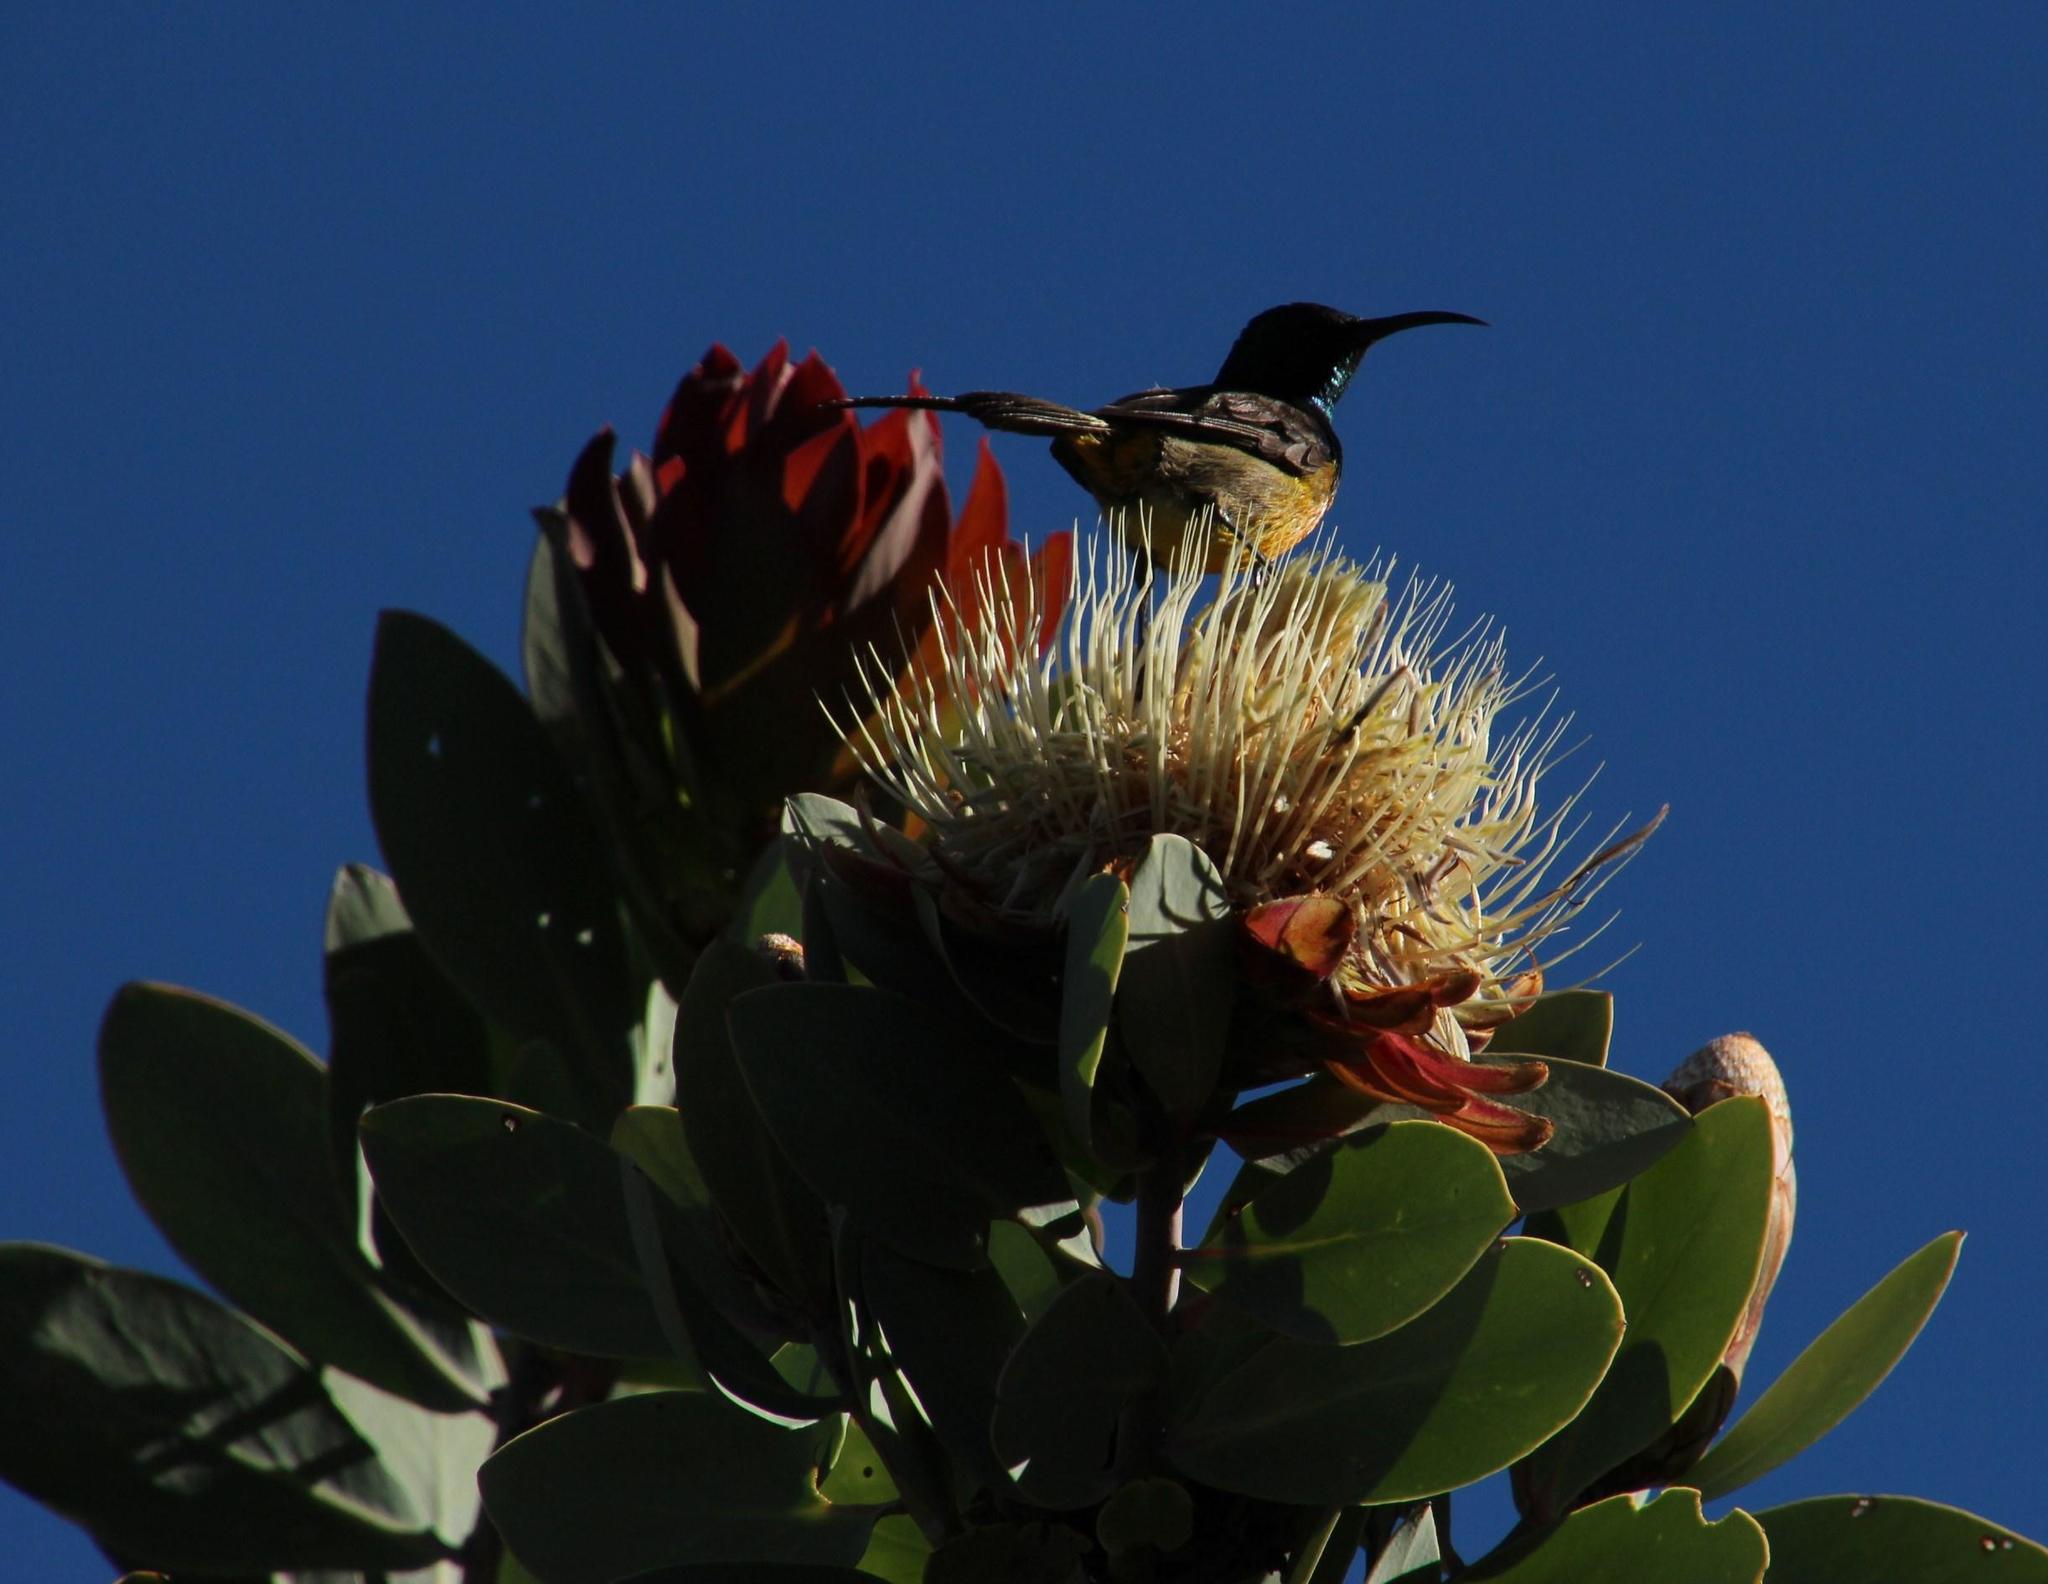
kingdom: Animalia
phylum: Chordata
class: Aves
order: Passeriformes
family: Nectariniidae
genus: Anthobaphes
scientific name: Anthobaphes violacea
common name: Orange-breasted sunbird
